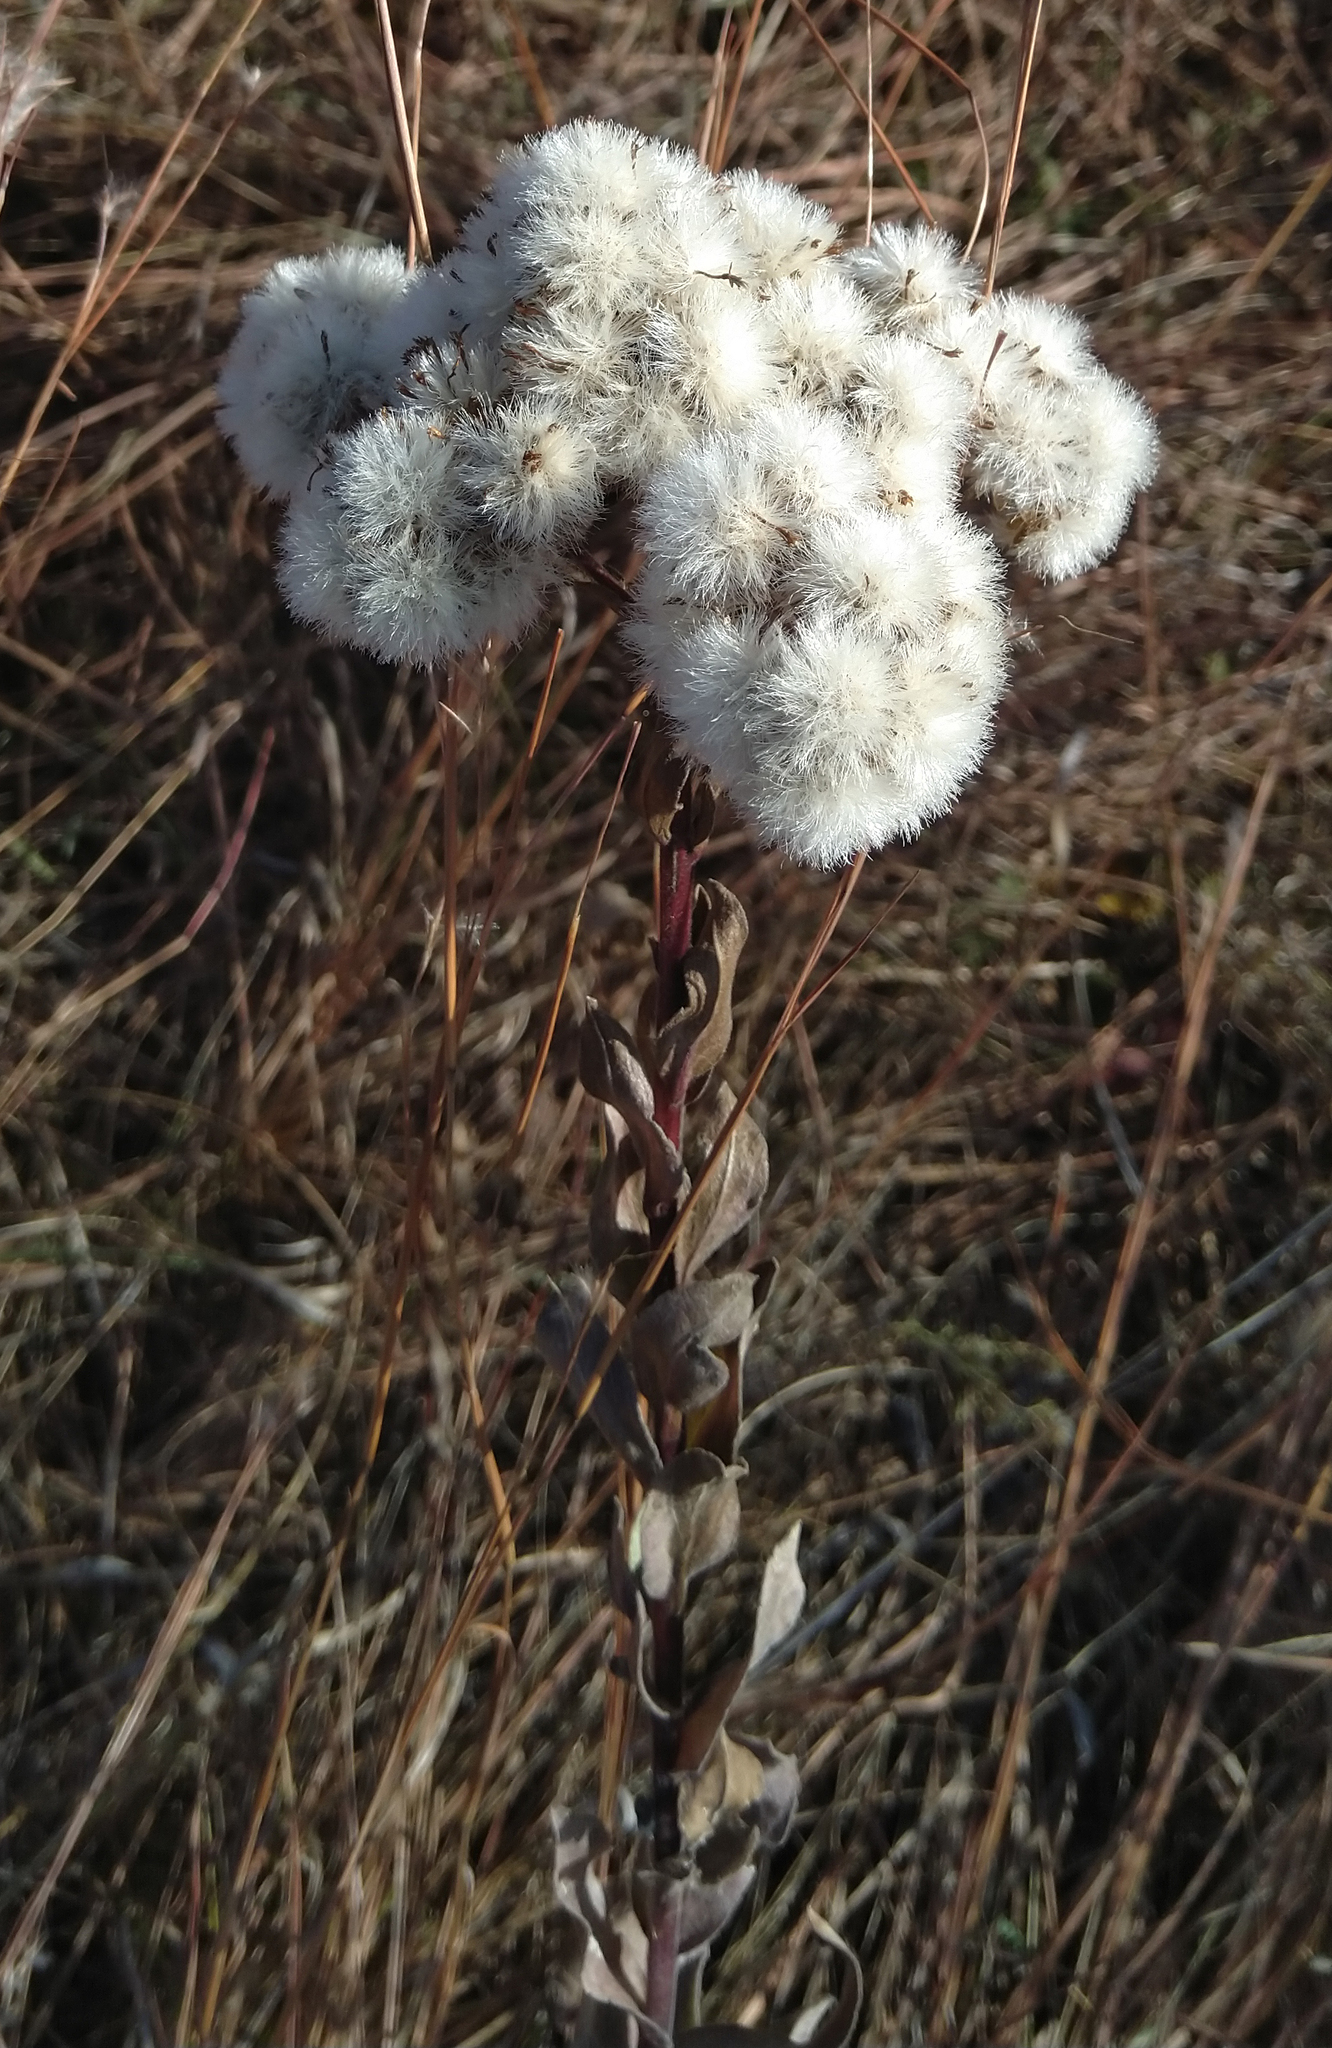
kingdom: Plantae
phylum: Tracheophyta
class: Magnoliopsida
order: Asterales
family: Asteraceae
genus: Solidago
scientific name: Solidago rigida
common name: Rigid goldenrod
